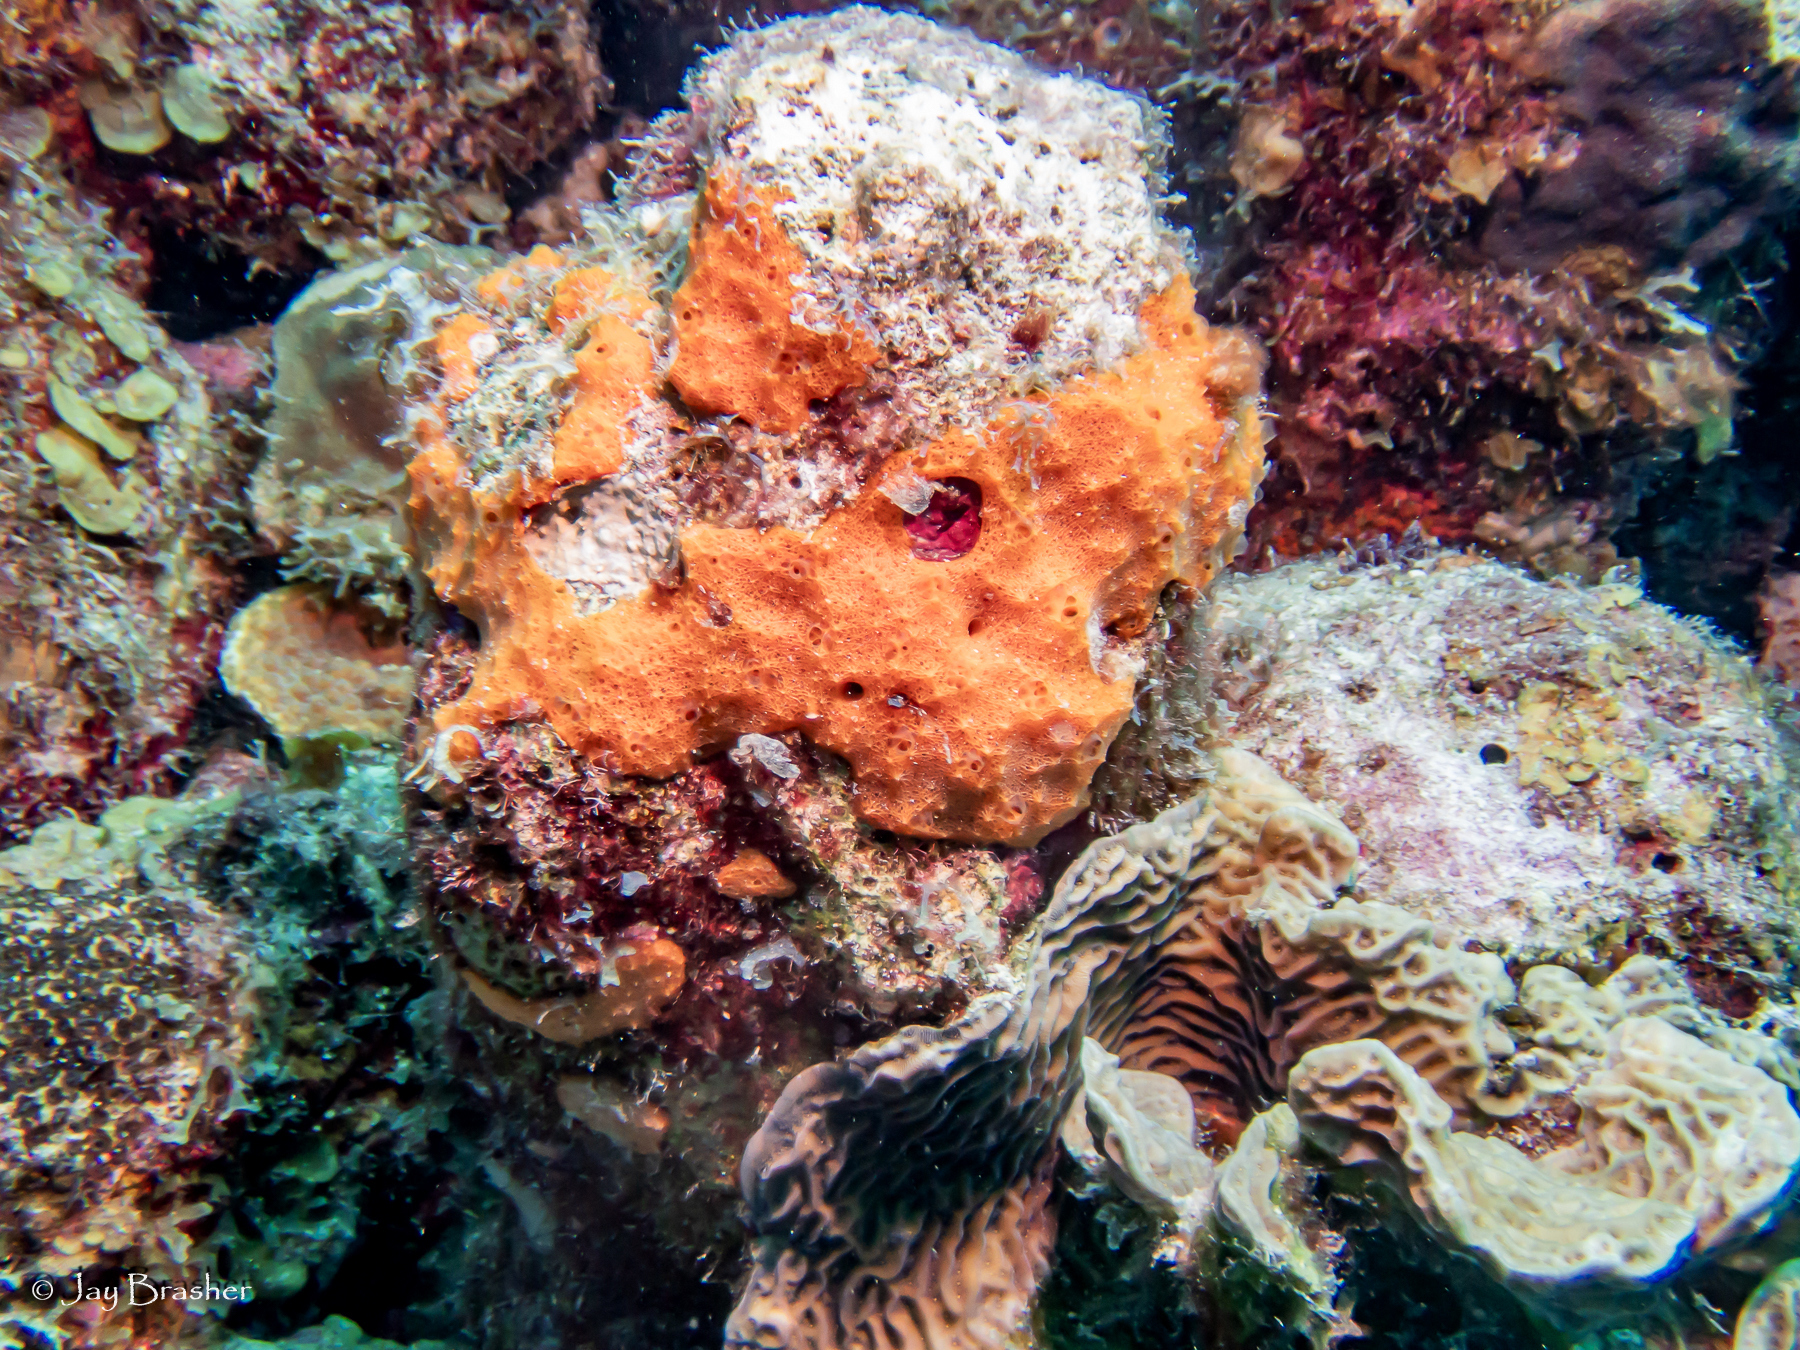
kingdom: Animalia
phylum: Cnidaria
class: Anthozoa
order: Scleractinia
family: Agariciidae
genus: Agaricia
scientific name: Agaricia agaricites
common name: Lettuce coral
